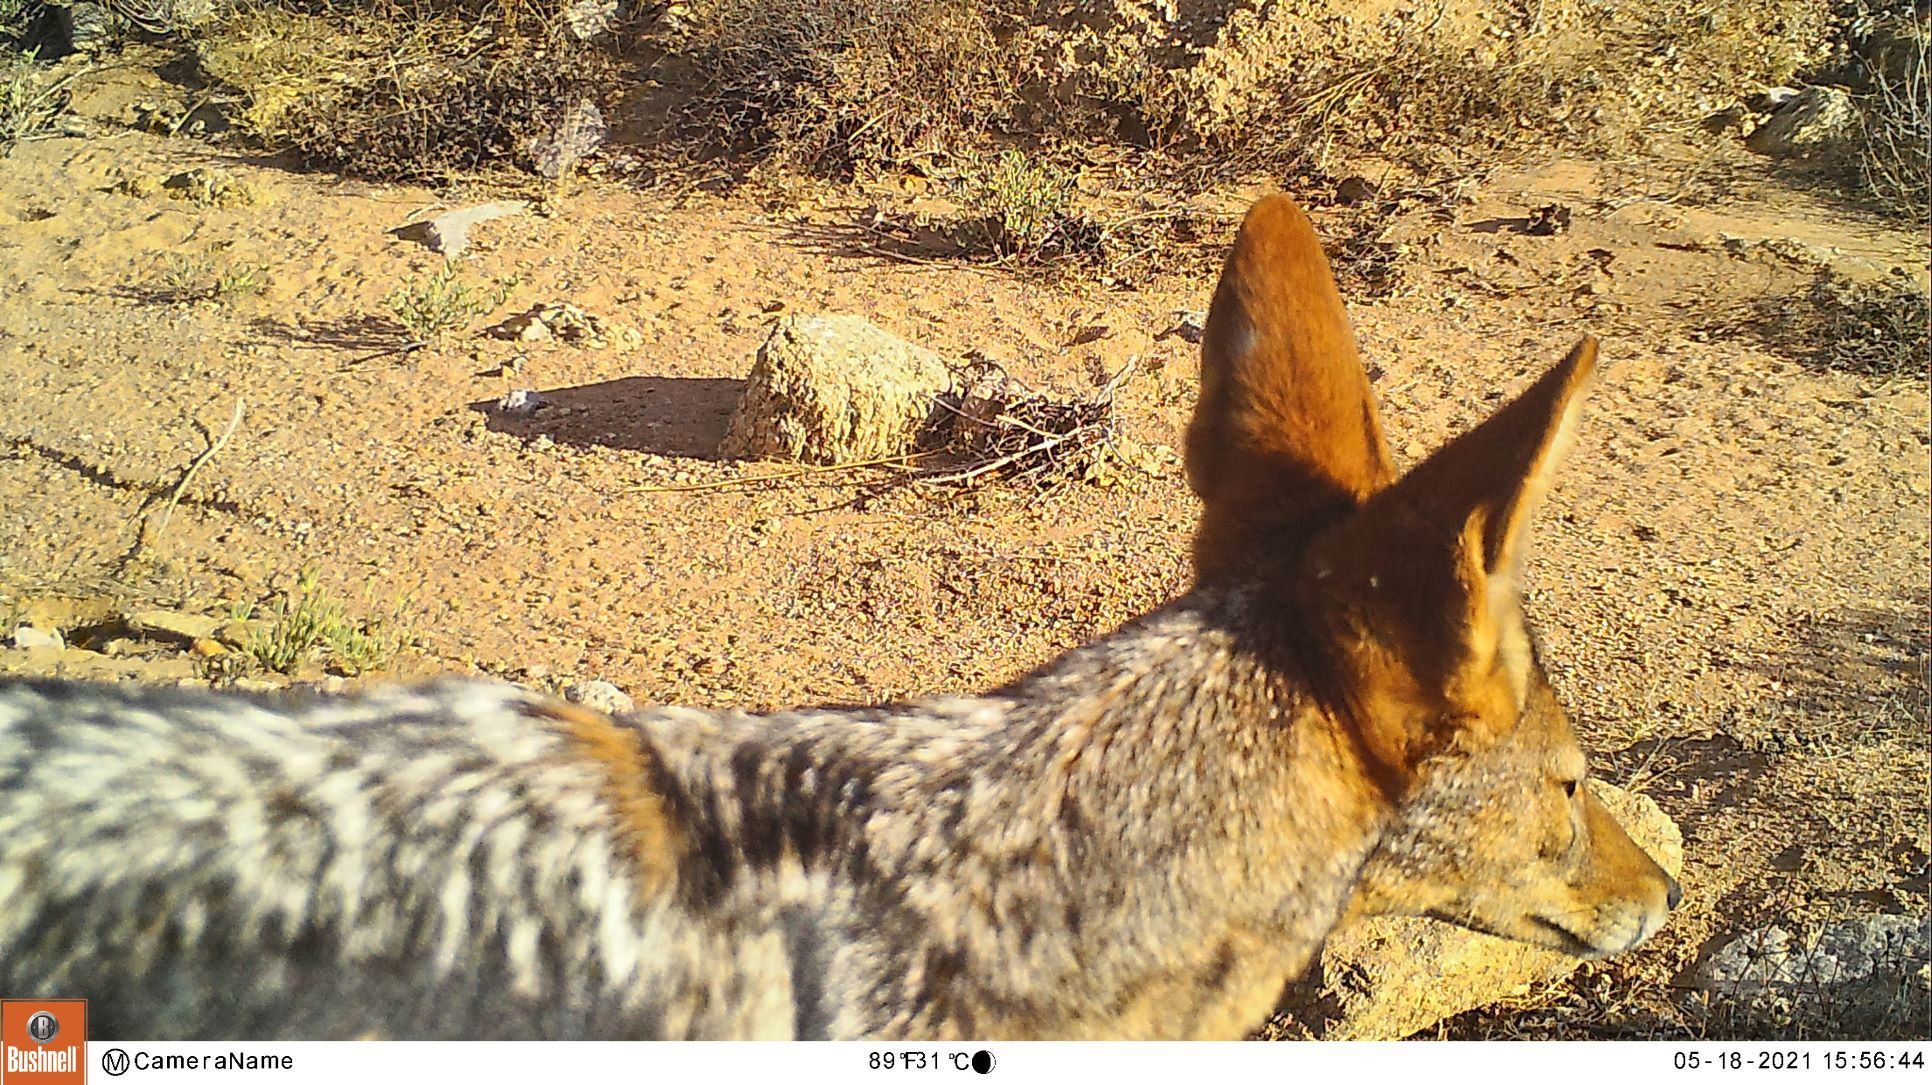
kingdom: Animalia
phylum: Chordata
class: Mammalia
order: Carnivora
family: Canidae
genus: Lupulella
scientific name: Lupulella
